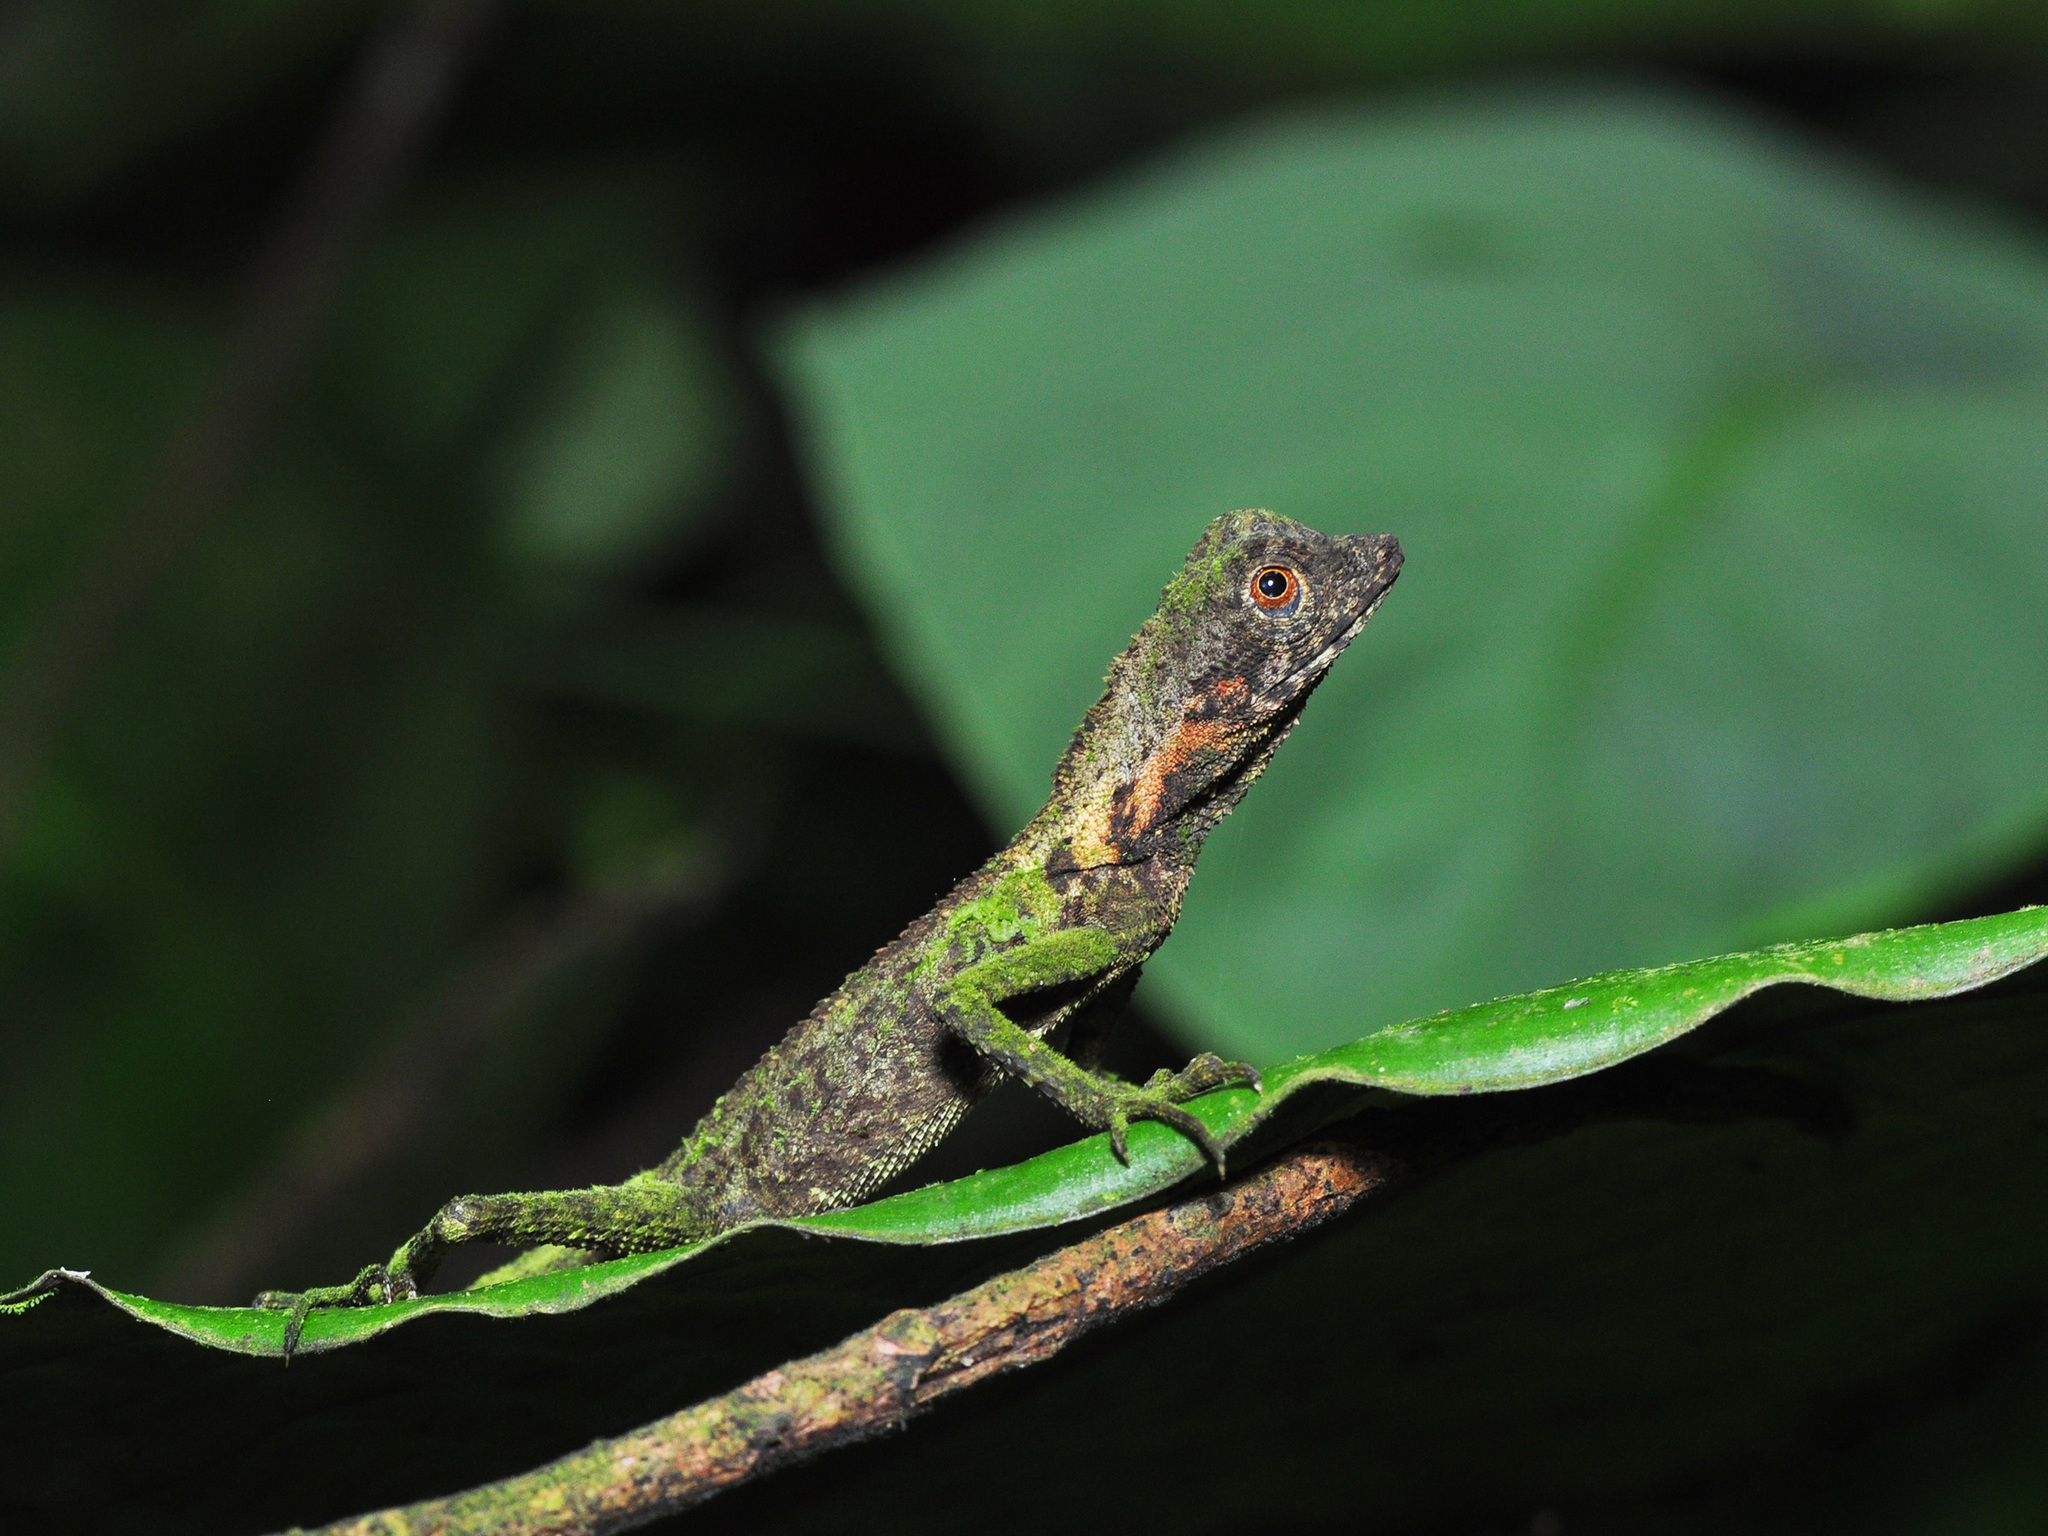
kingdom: Animalia
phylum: Chordata
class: Squamata
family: Agamidae
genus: Aphaniotis
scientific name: Aphaniotis fusca
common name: Dusky earless agama
